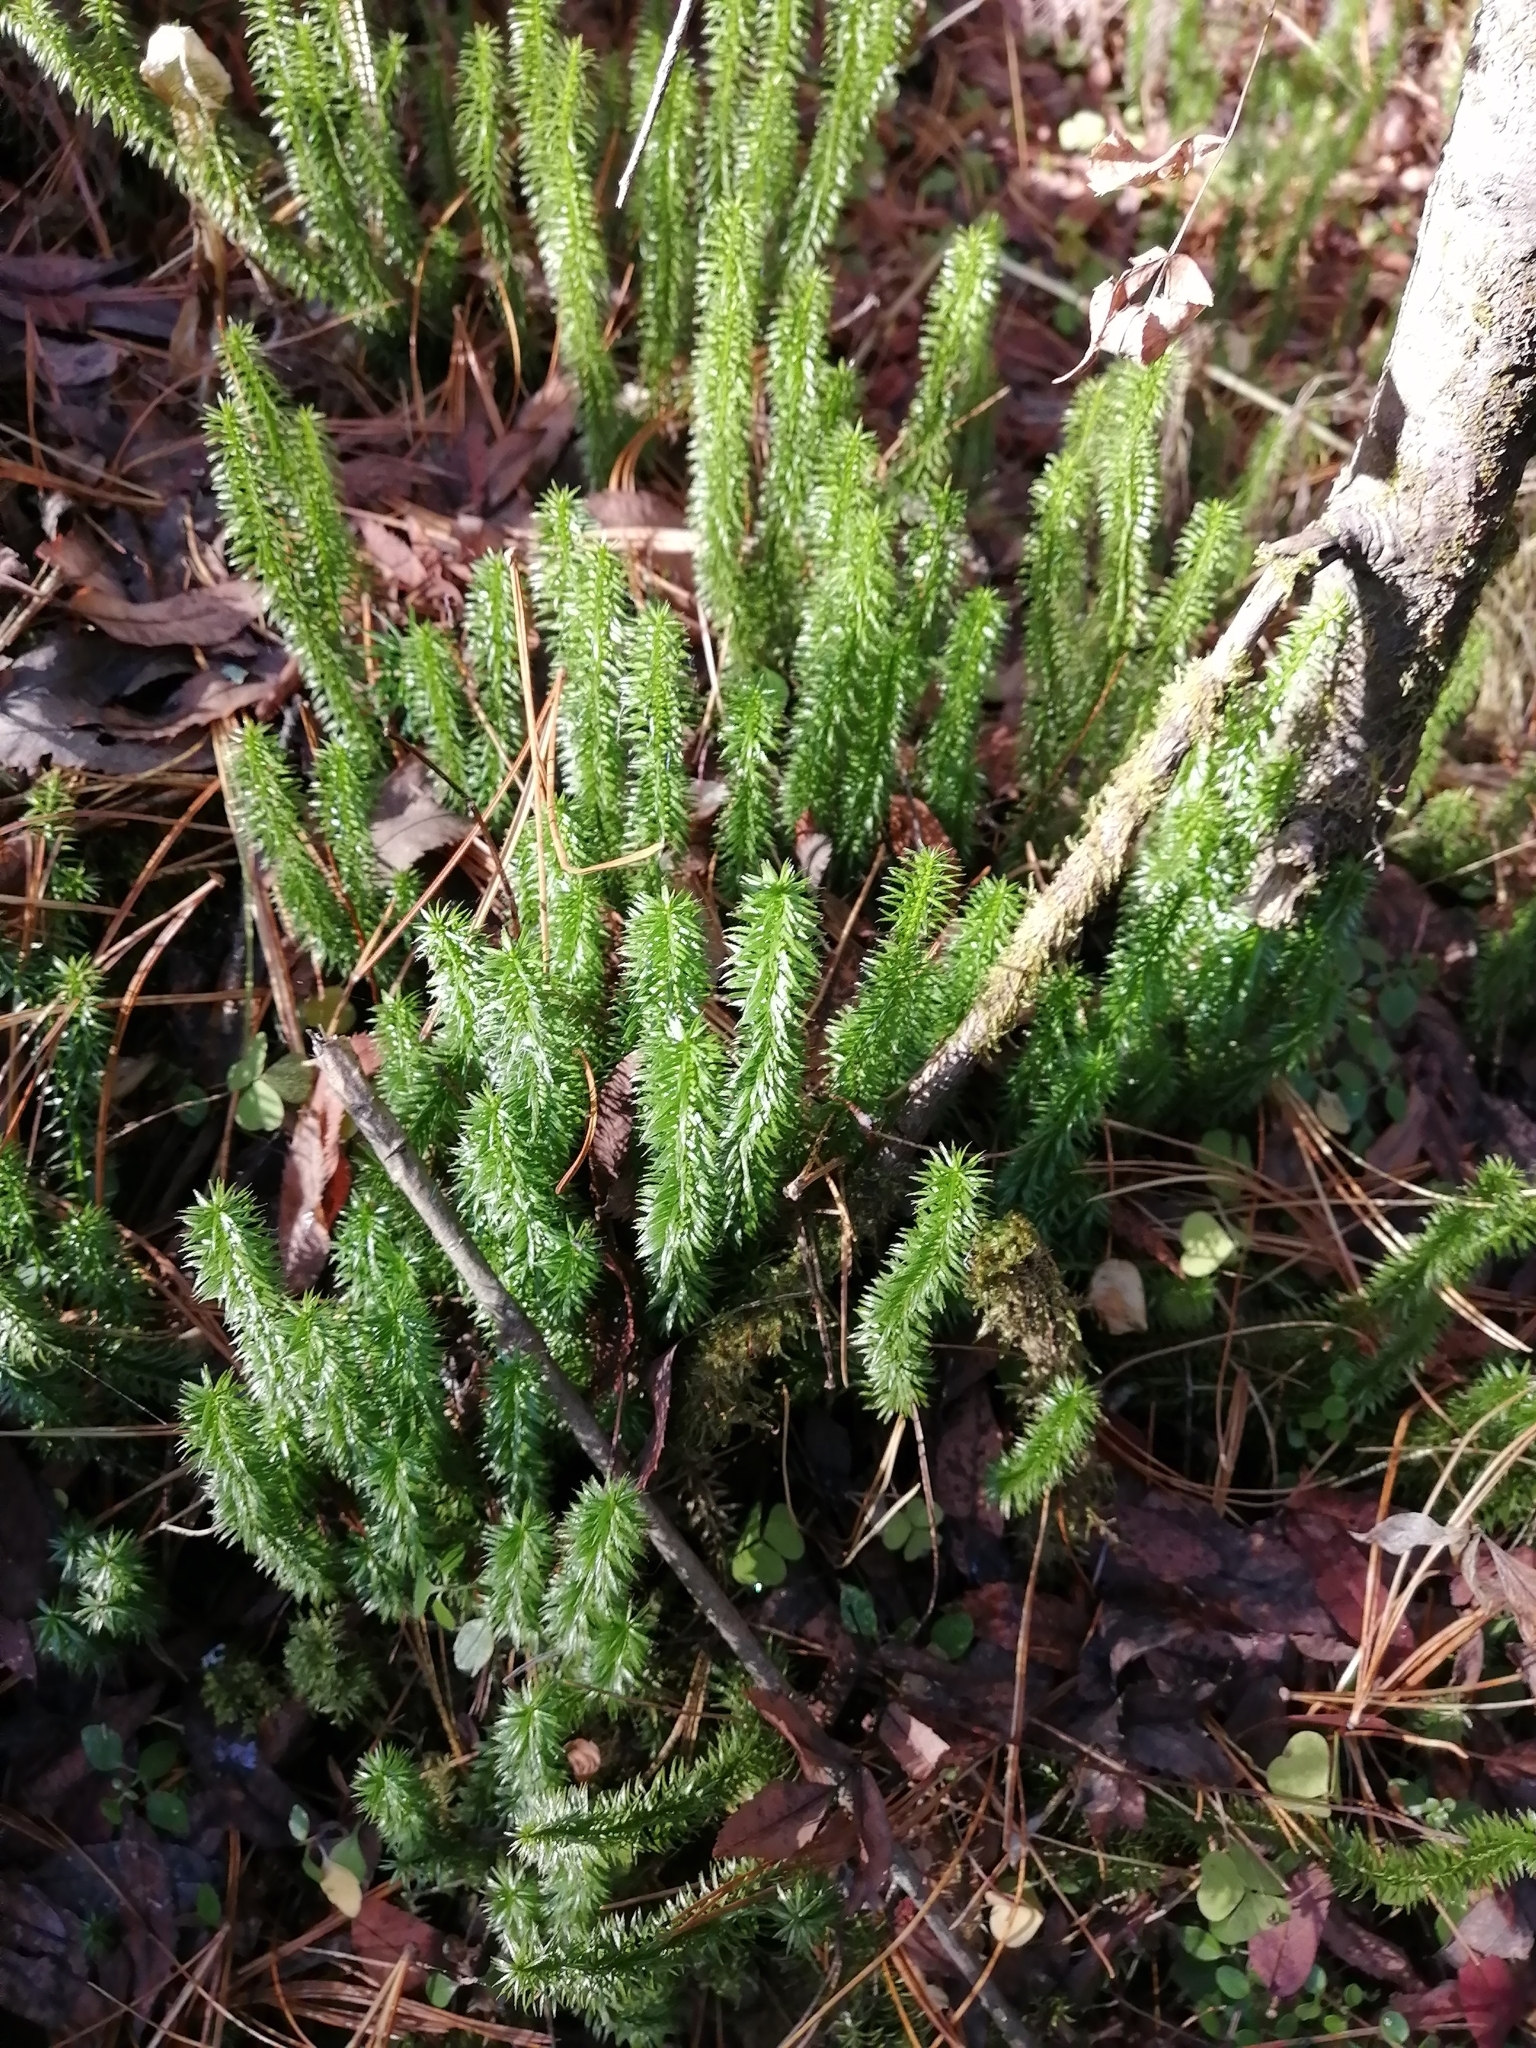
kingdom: Plantae
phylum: Tracheophyta
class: Lycopodiopsida
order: Lycopodiales
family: Lycopodiaceae
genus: Spinulum
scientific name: Spinulum annotinum
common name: Interrupted club-moss
